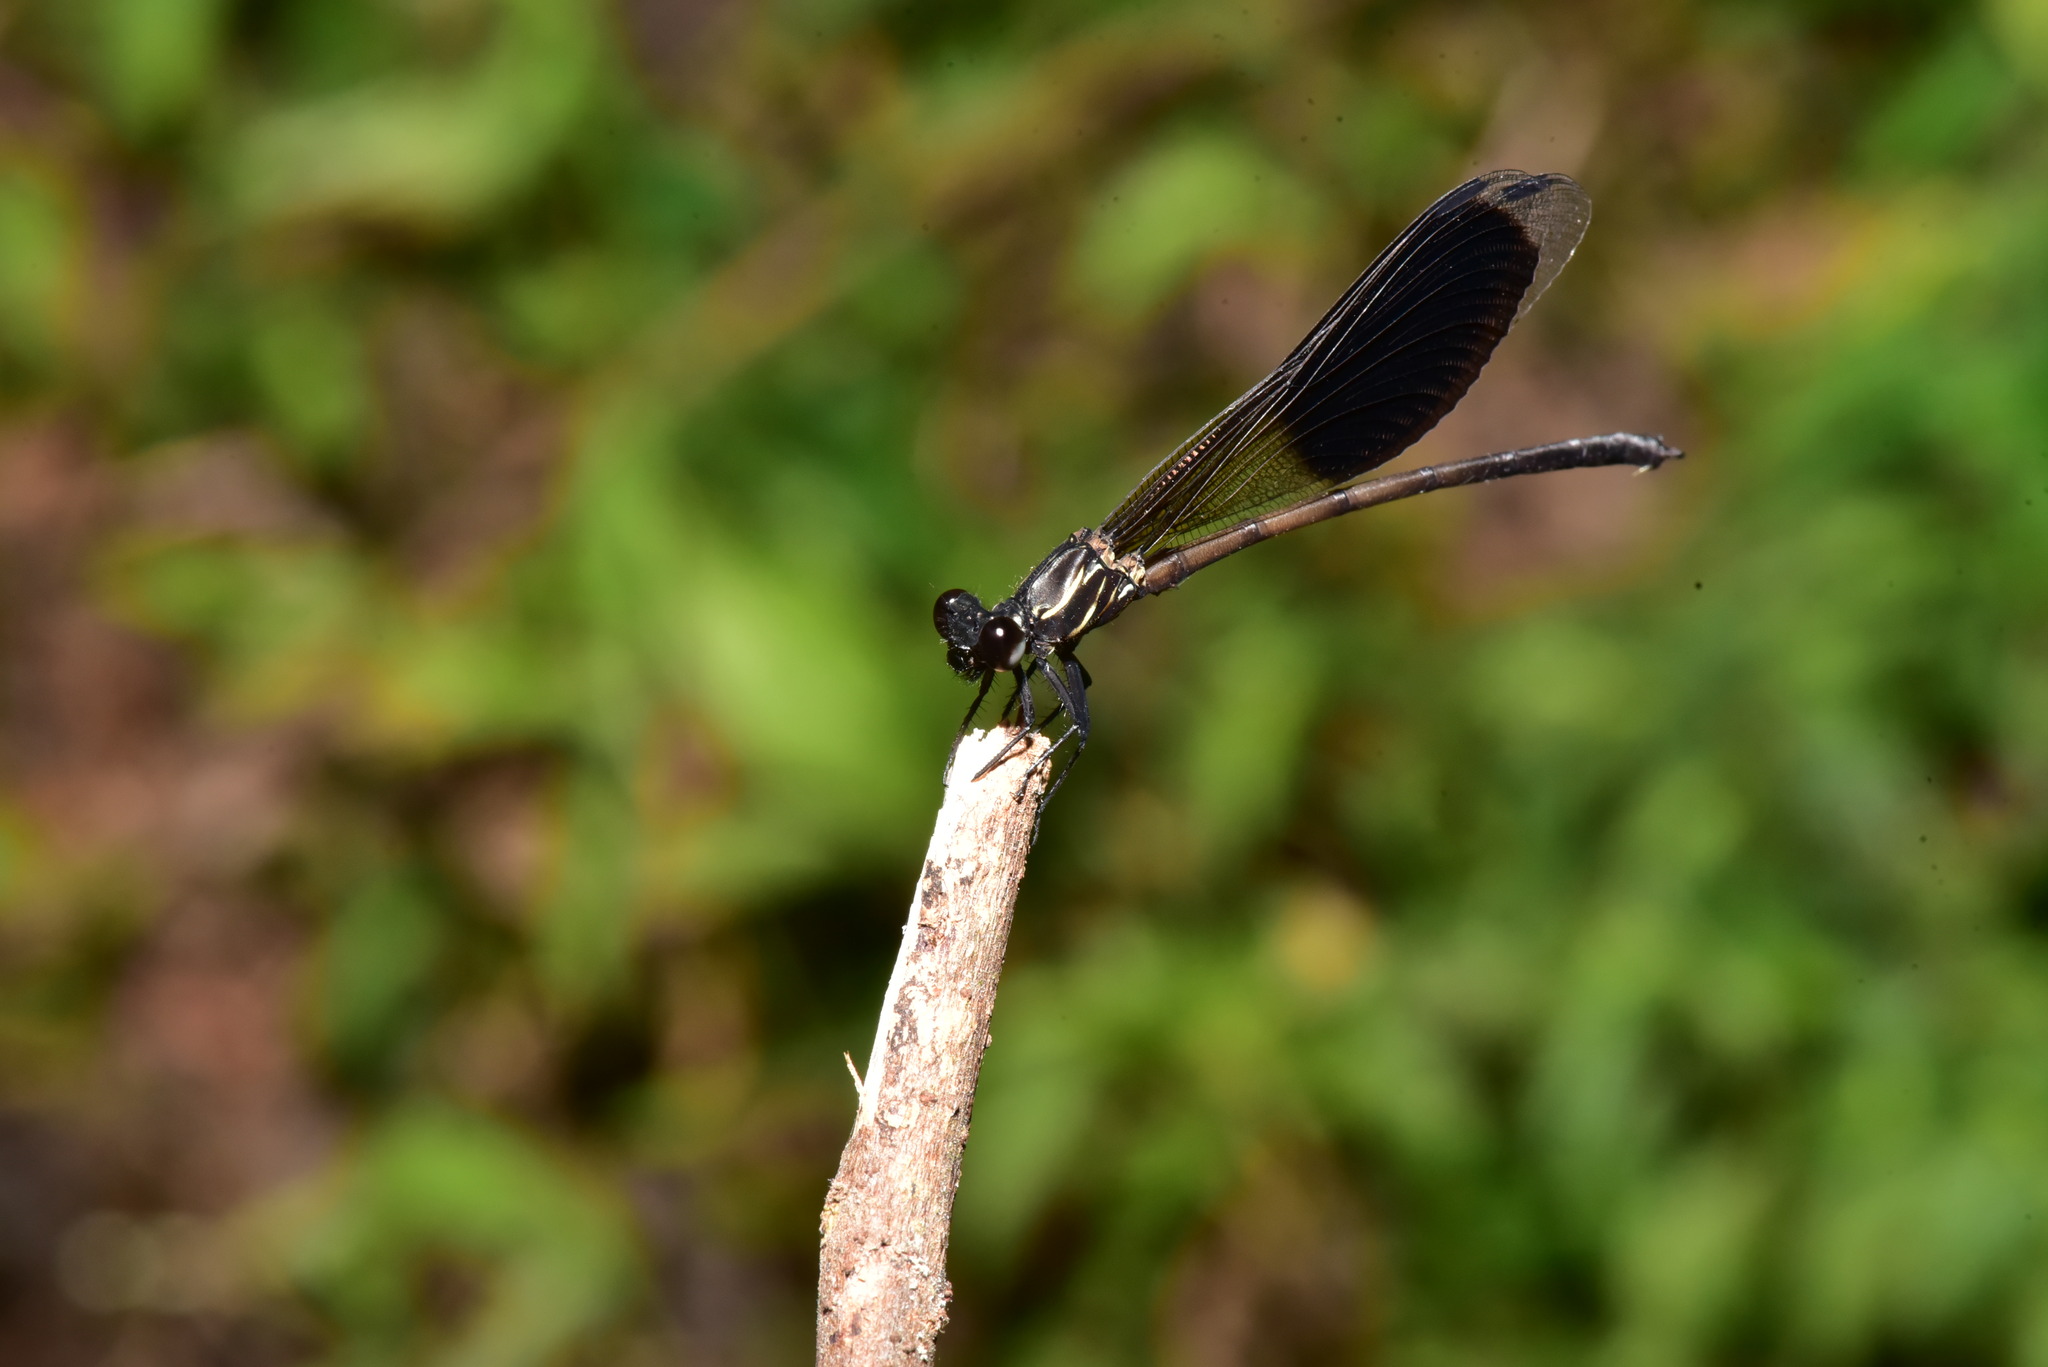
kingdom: Animalia
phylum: Arthropoda
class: Insecta
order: Odonata
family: Euphaeidae
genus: Euphaea
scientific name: Euphaea formosa
